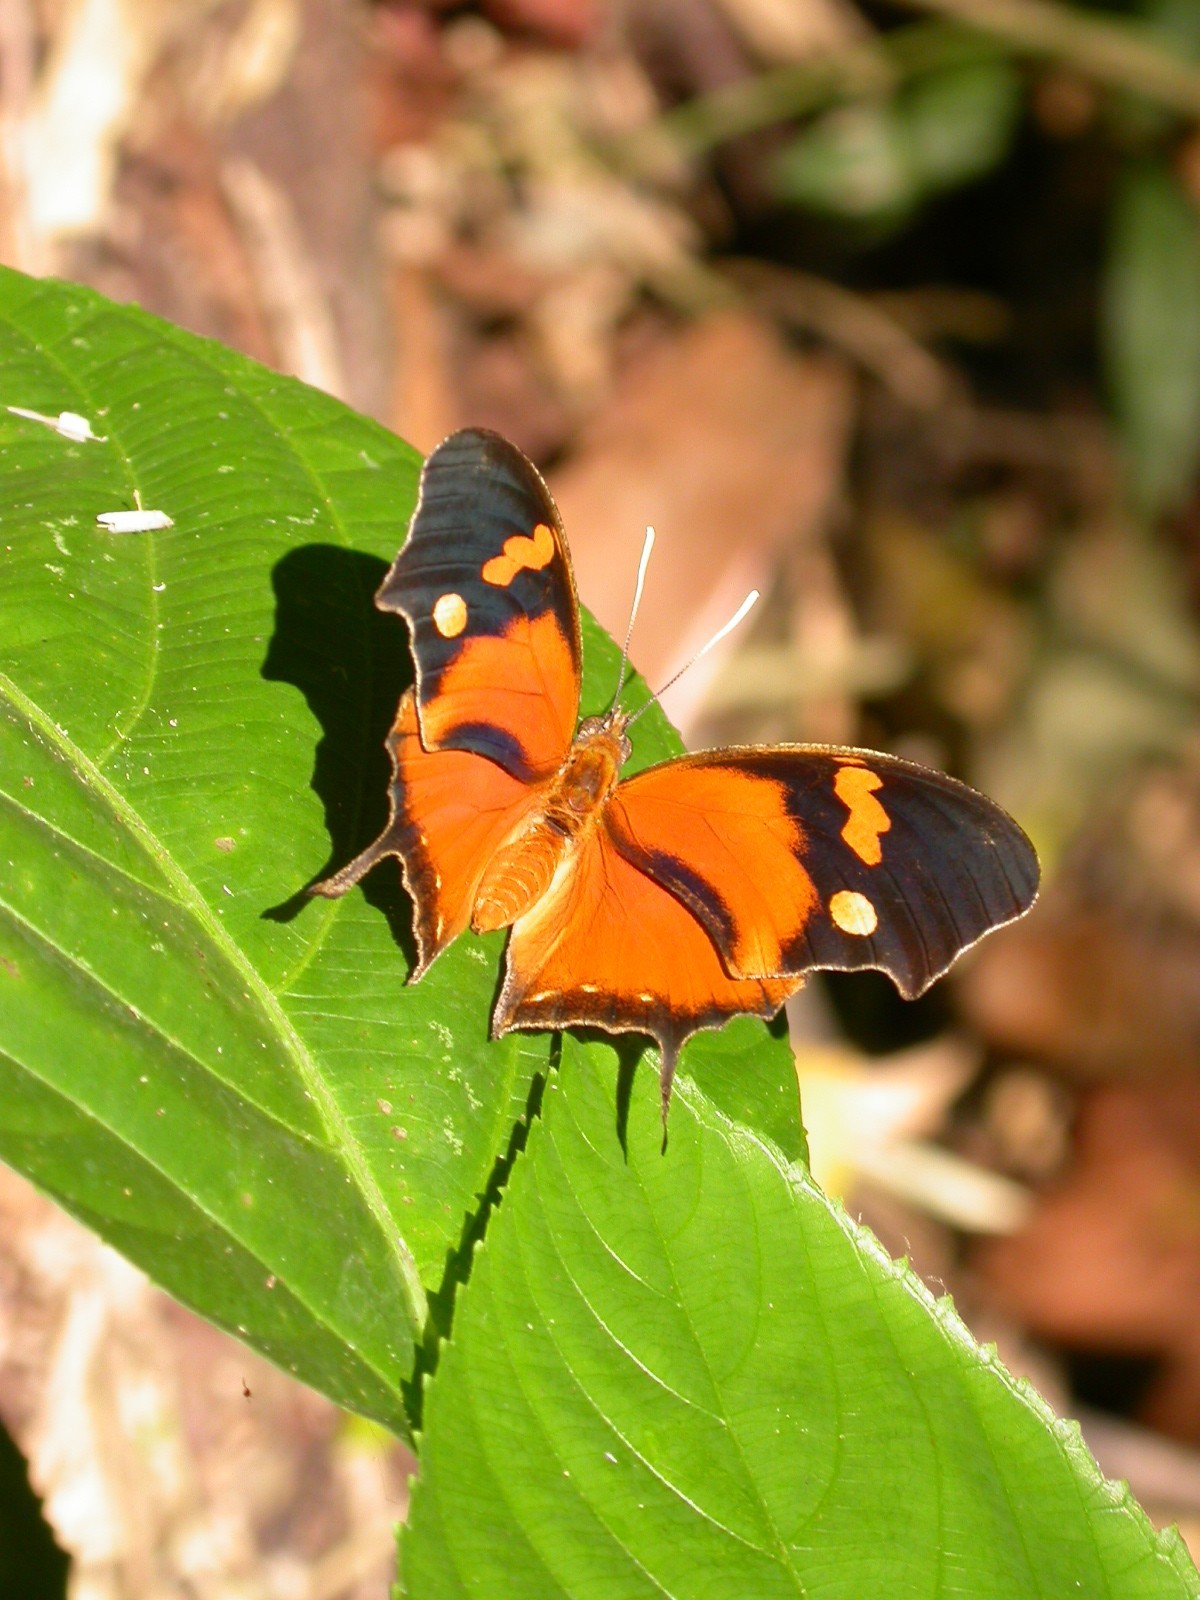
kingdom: Animalia
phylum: Arthropoda
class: Insecta
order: Lepidoptera
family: Nymphalidae
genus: Consul
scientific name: Consul fabius
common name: Tiger leafwing
